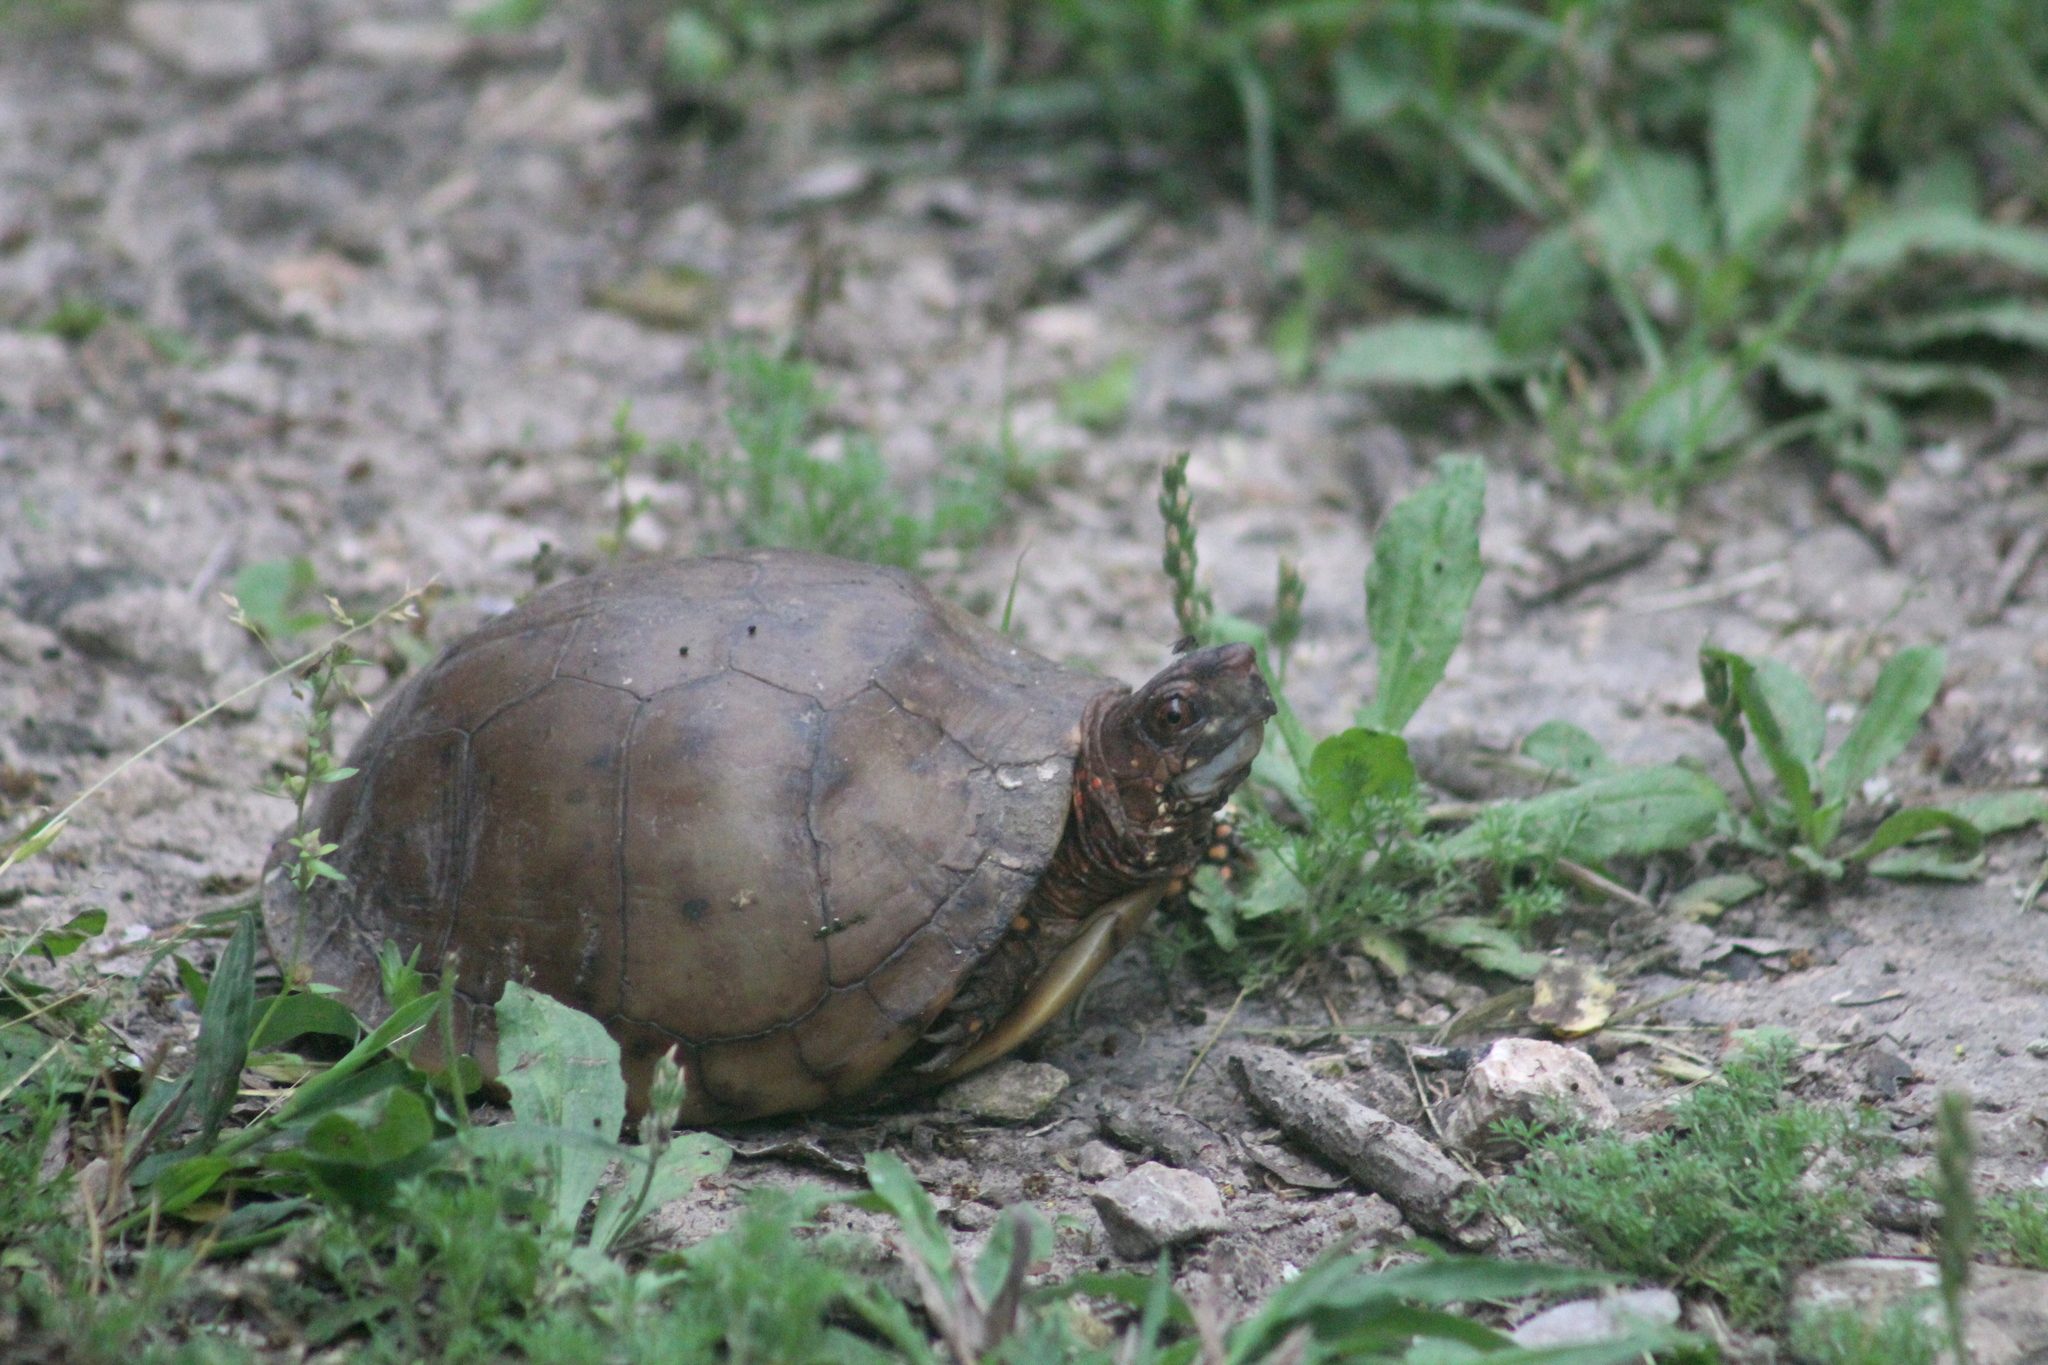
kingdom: Animalia
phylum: Chordata
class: Testudines
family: Emydidae
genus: Terrapene
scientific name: Terrapene carolina
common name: Common box turtle
